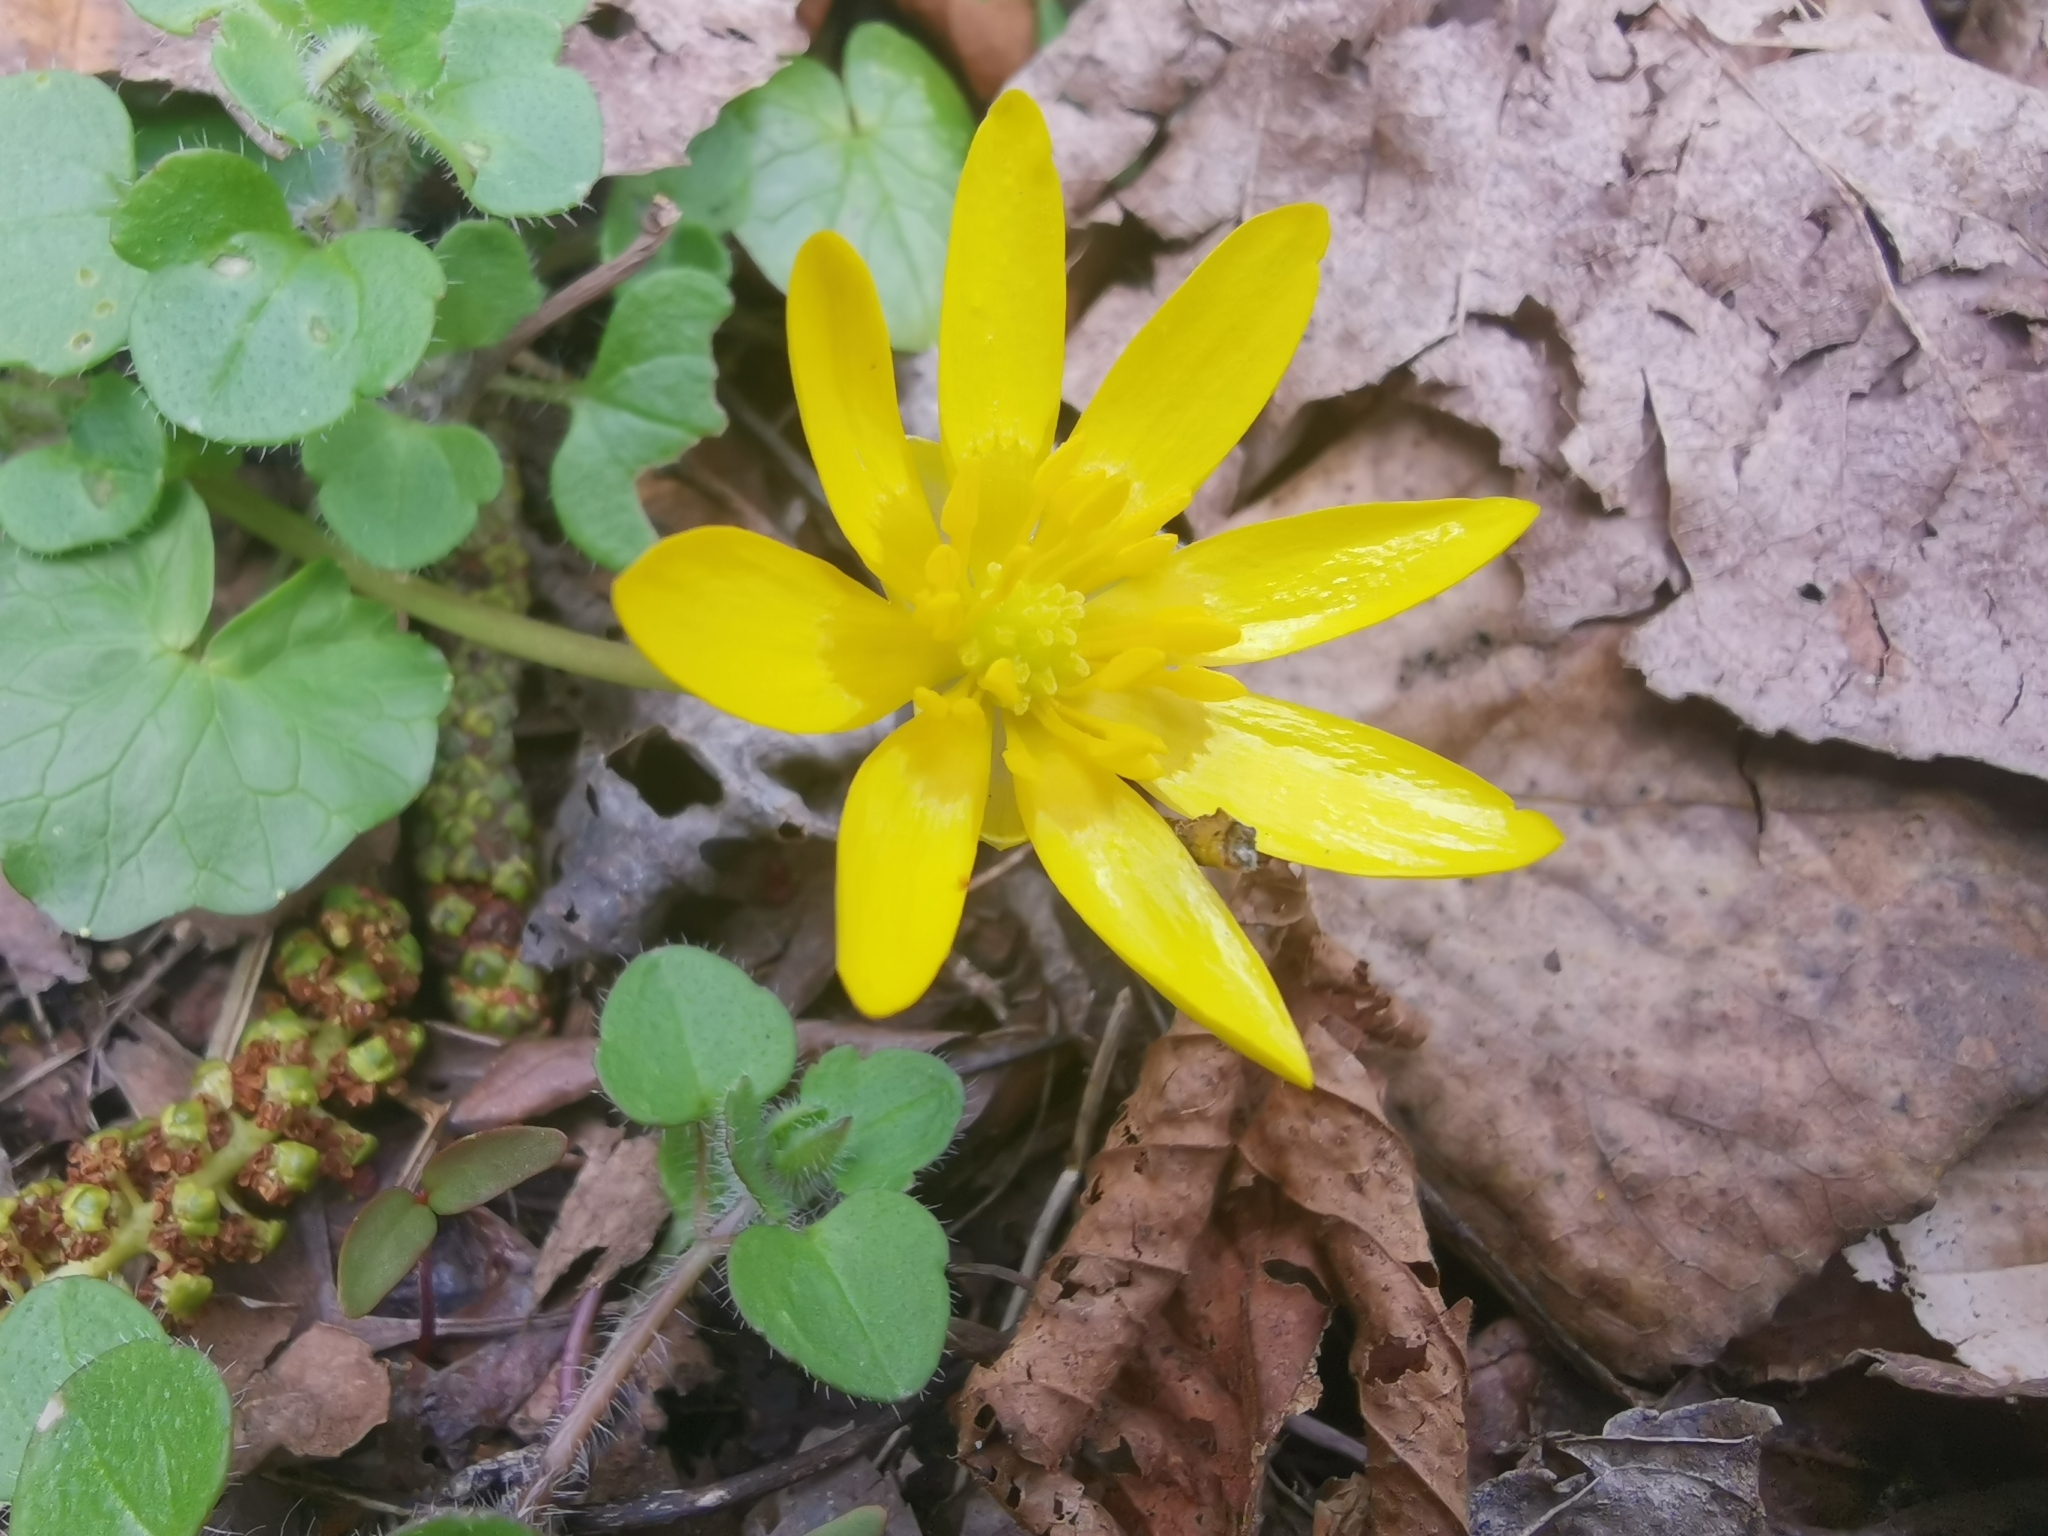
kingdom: Plantae
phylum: Tracheophyta
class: Magnoliopsida
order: Ranunculales
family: Ranunculaceae
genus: Ficaria
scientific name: Ficaria verna
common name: Lesser celandine
